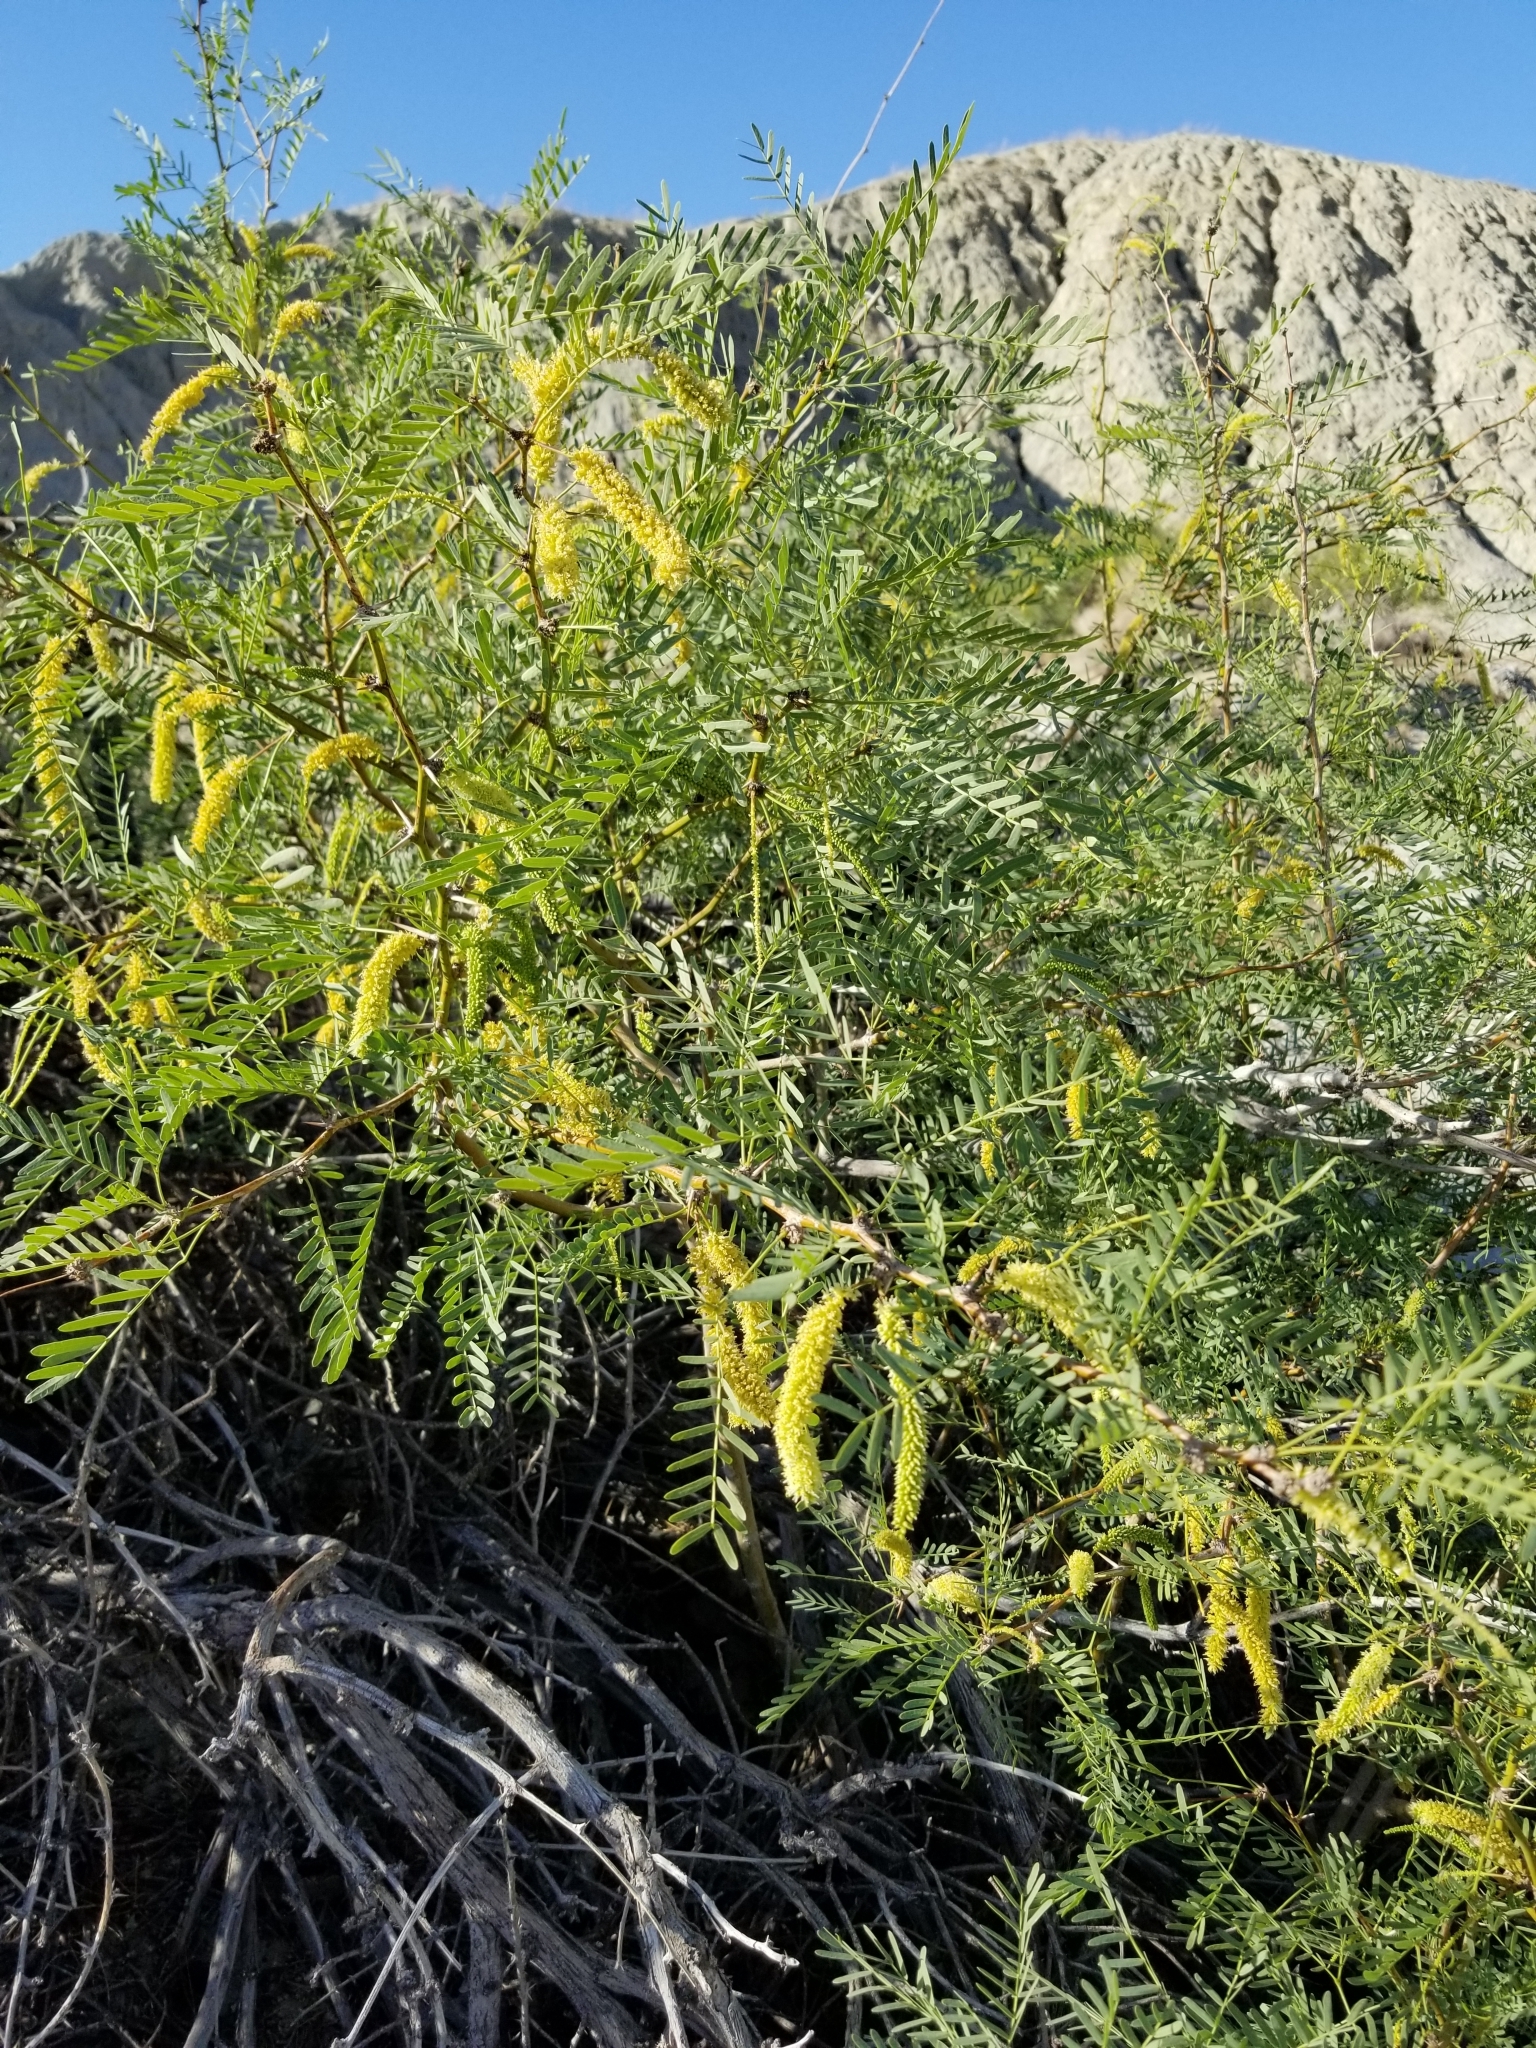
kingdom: Plantae
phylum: Tracheophyta
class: Magnoliopsida
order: Fabales
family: Fabaceae
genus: Prosopis
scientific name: Prosopis pubescens
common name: Screw-bean
